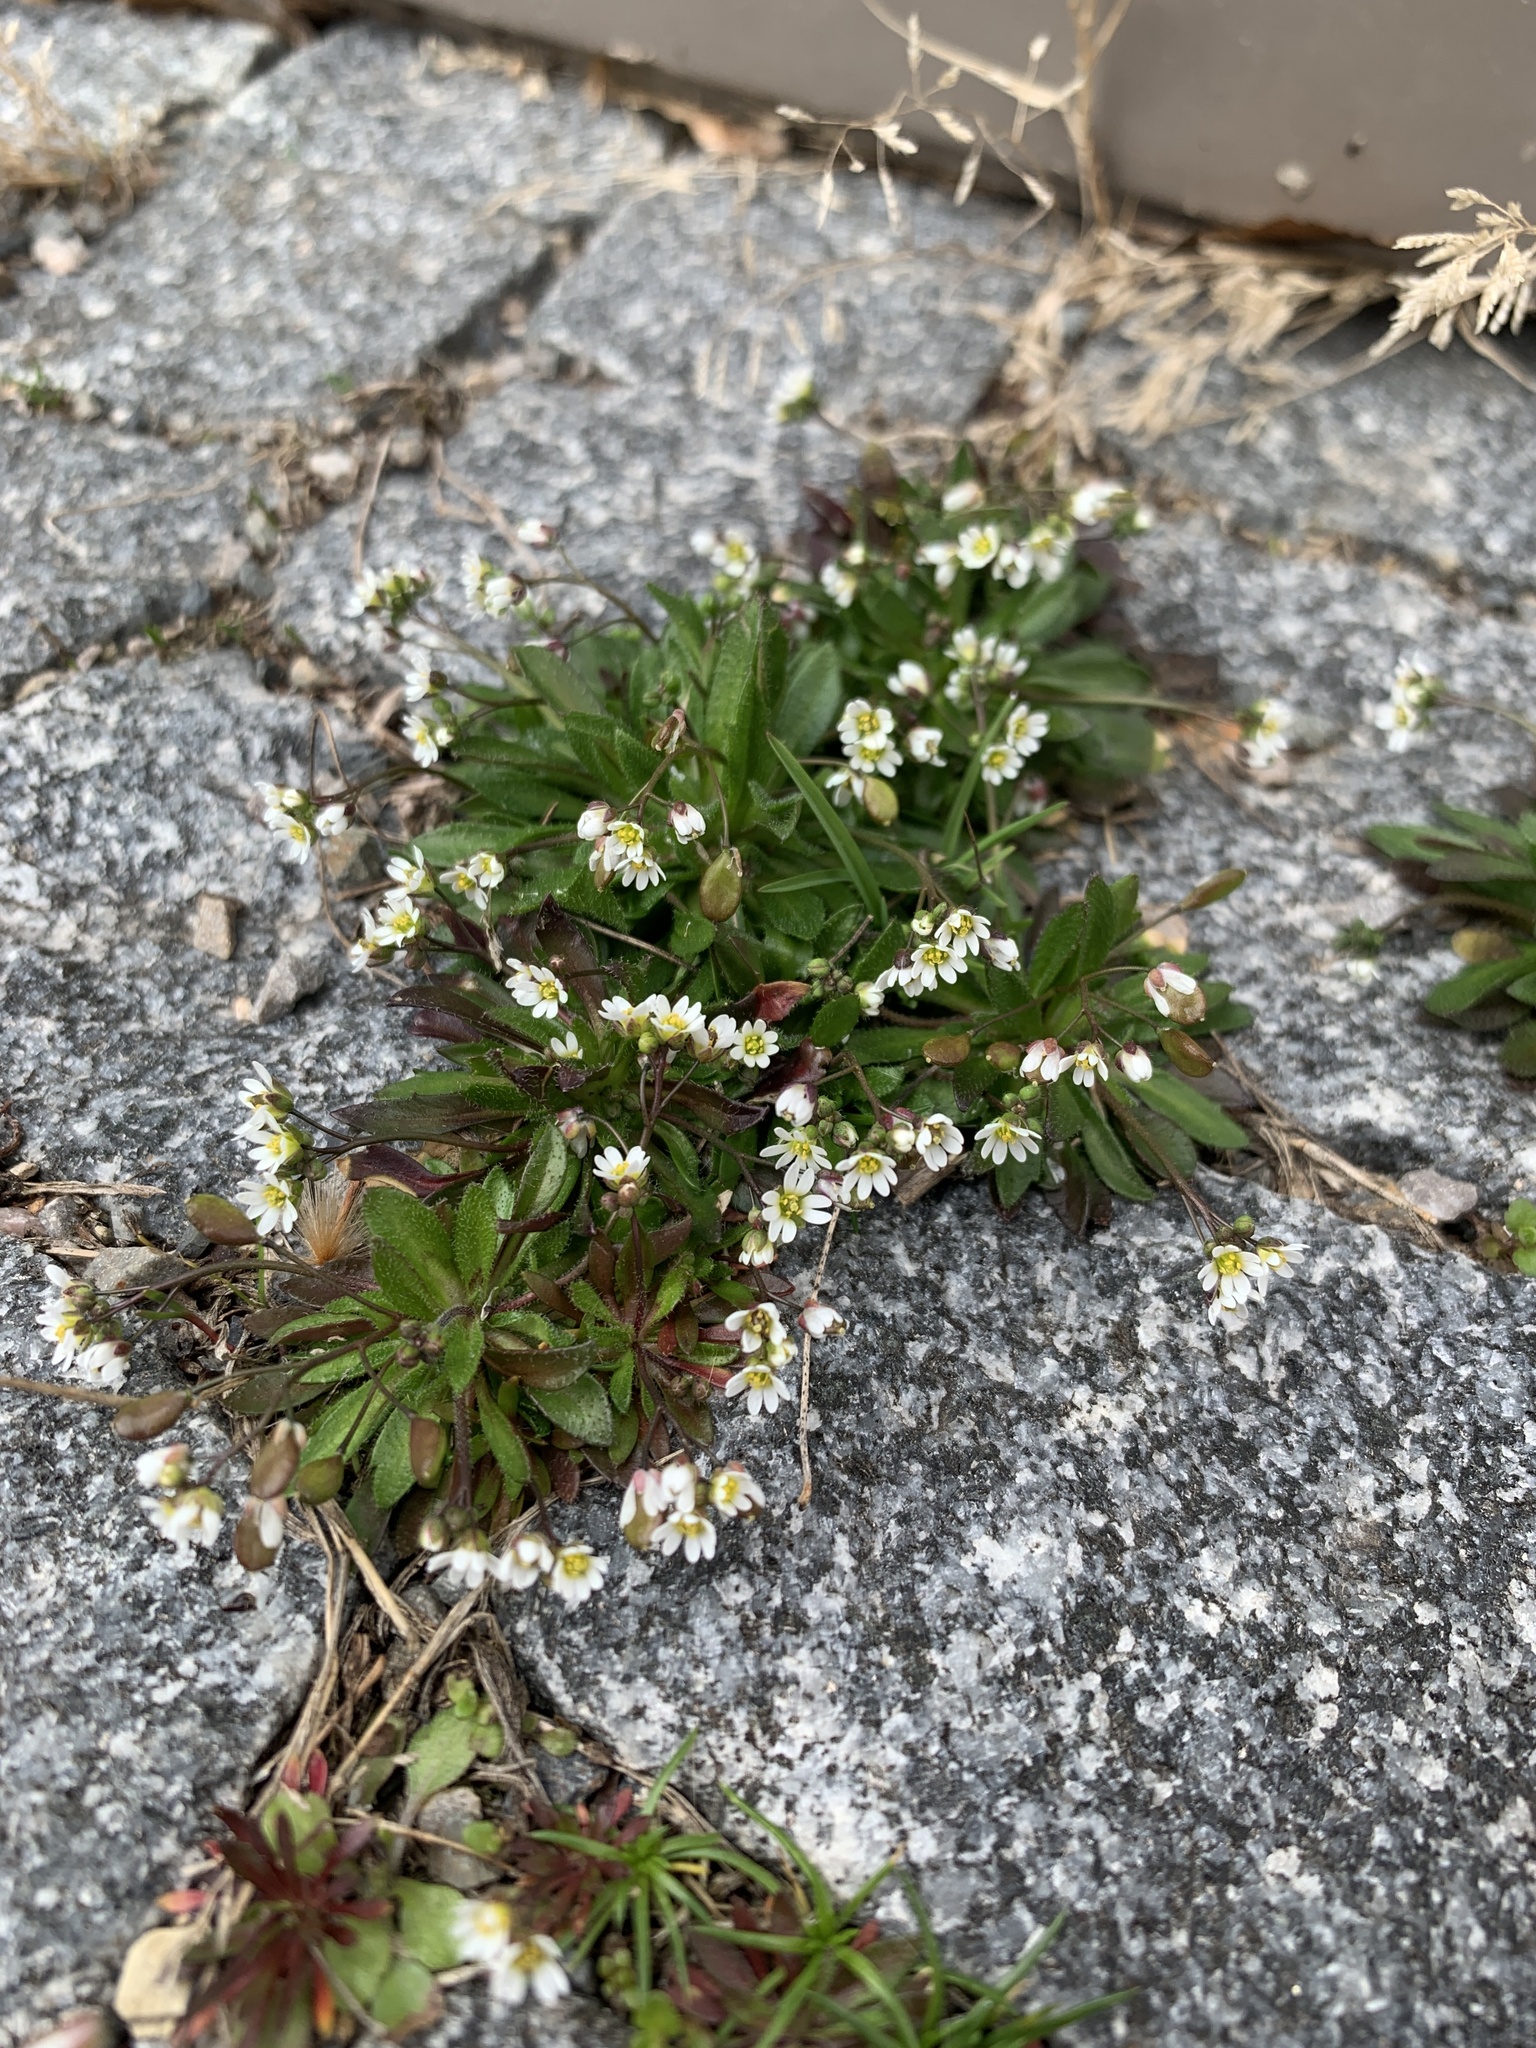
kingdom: Plantae
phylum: Tracheophyta
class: Magnoliopsida
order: Brassicales
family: Brassicaceae
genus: Draba
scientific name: Draba verna
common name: Spring draba
